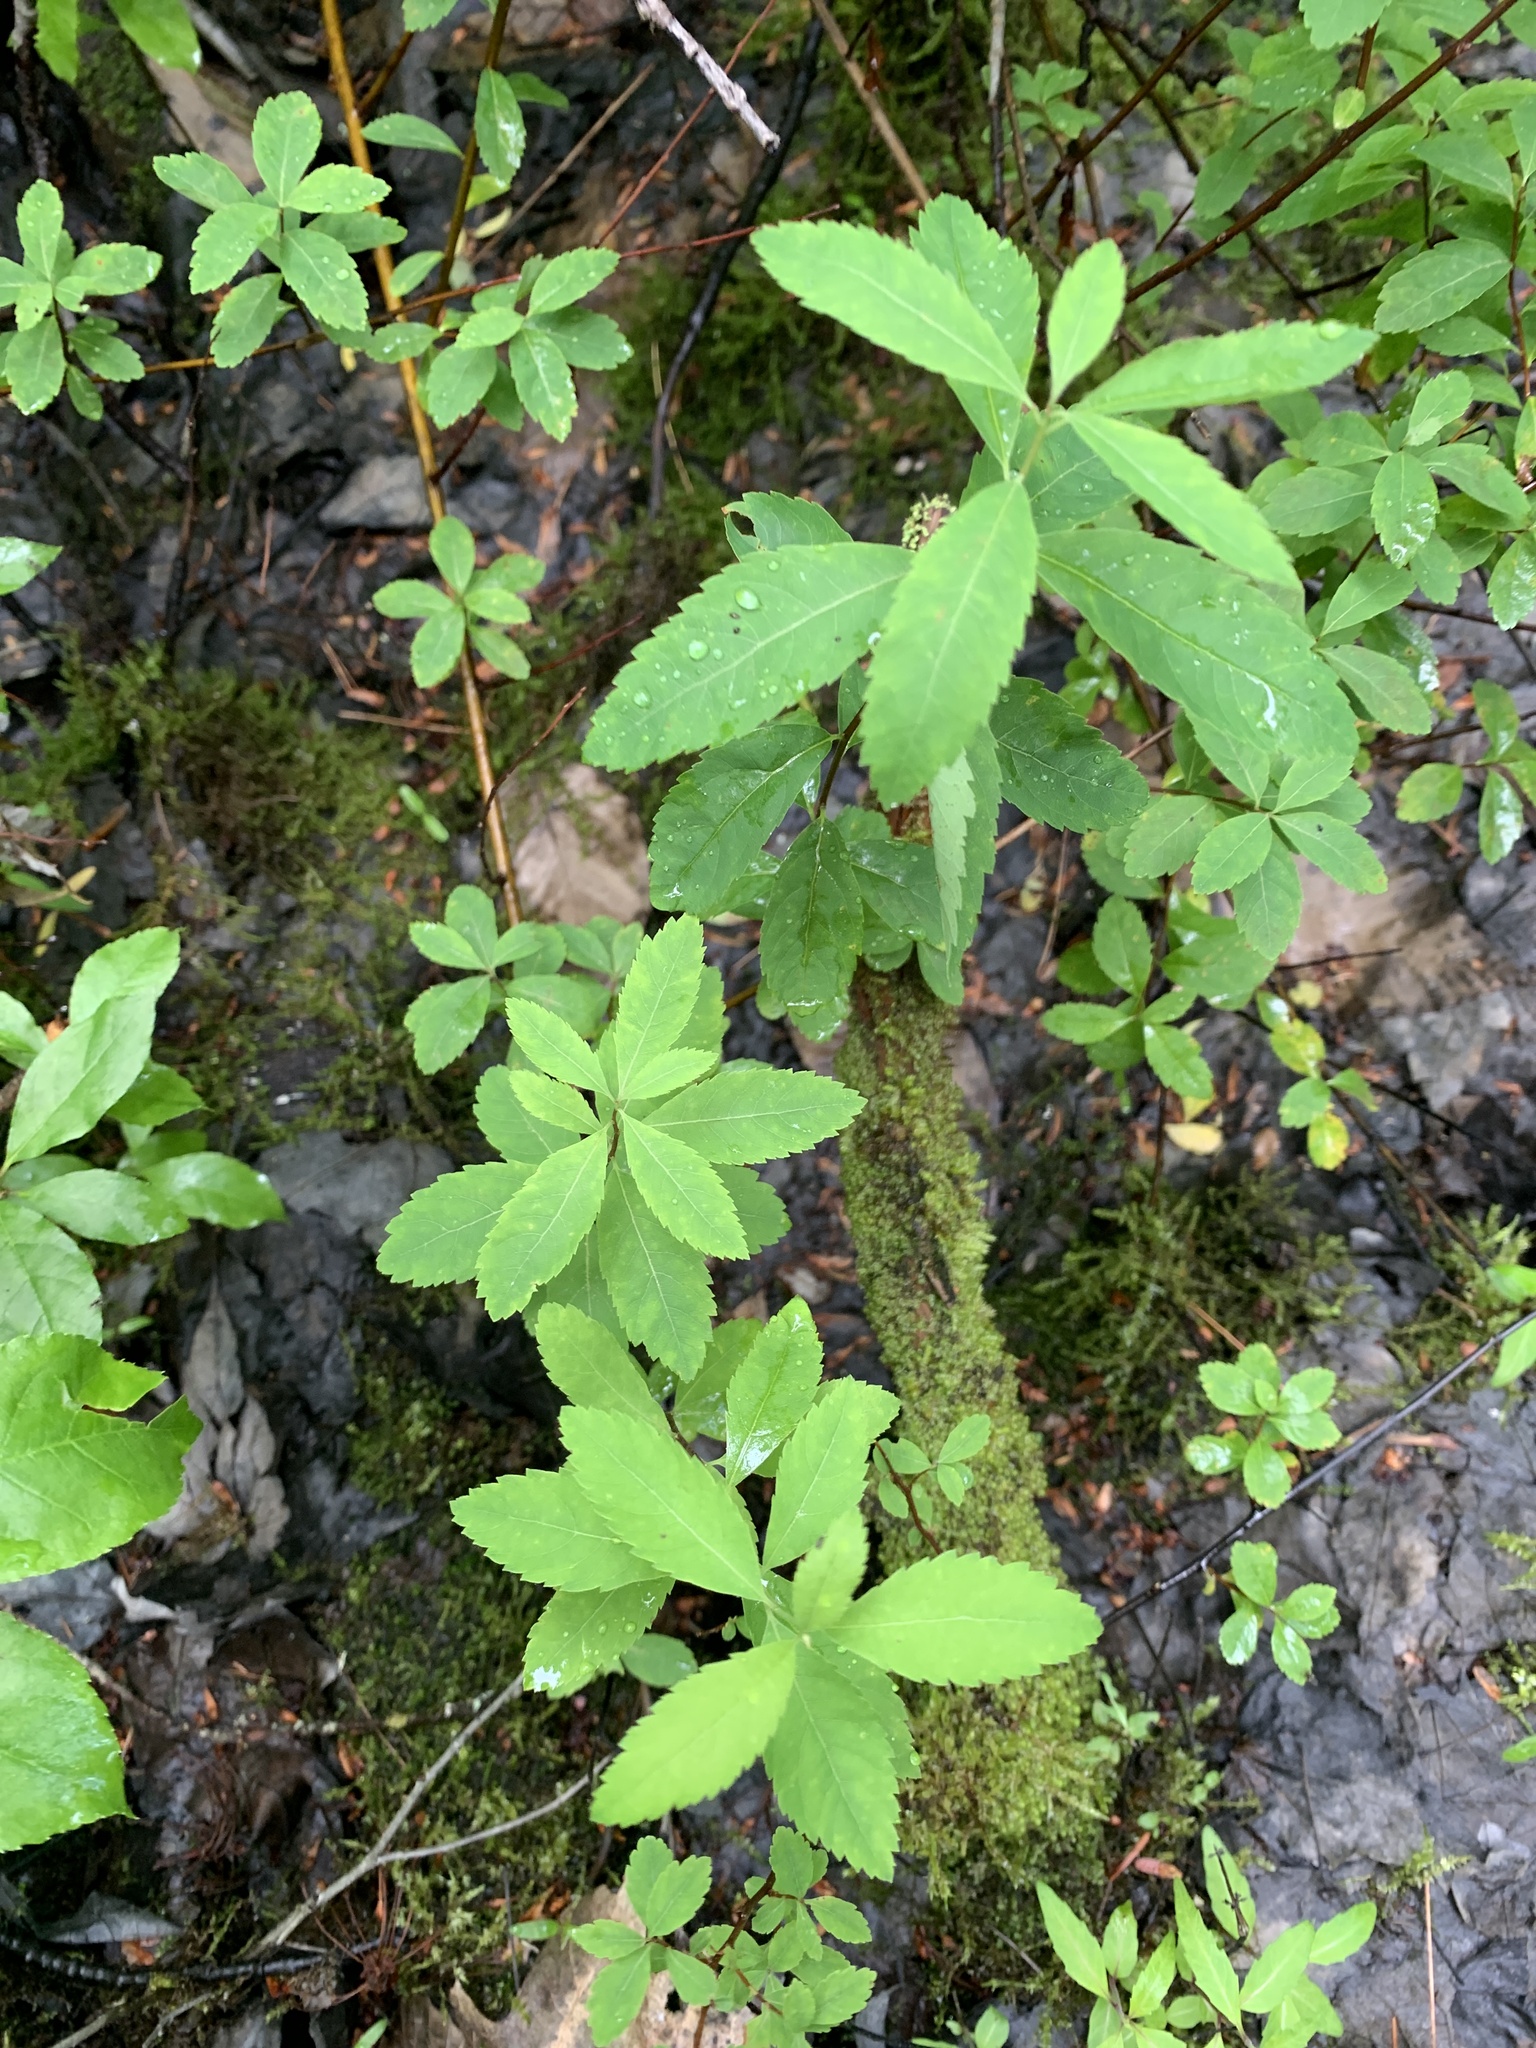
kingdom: Plantae
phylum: Tracheophyta
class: Magnoliopsida
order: Rosales
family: Rosaceae
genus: Spiraea
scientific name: Spiraea alba
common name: Pale bridewort
